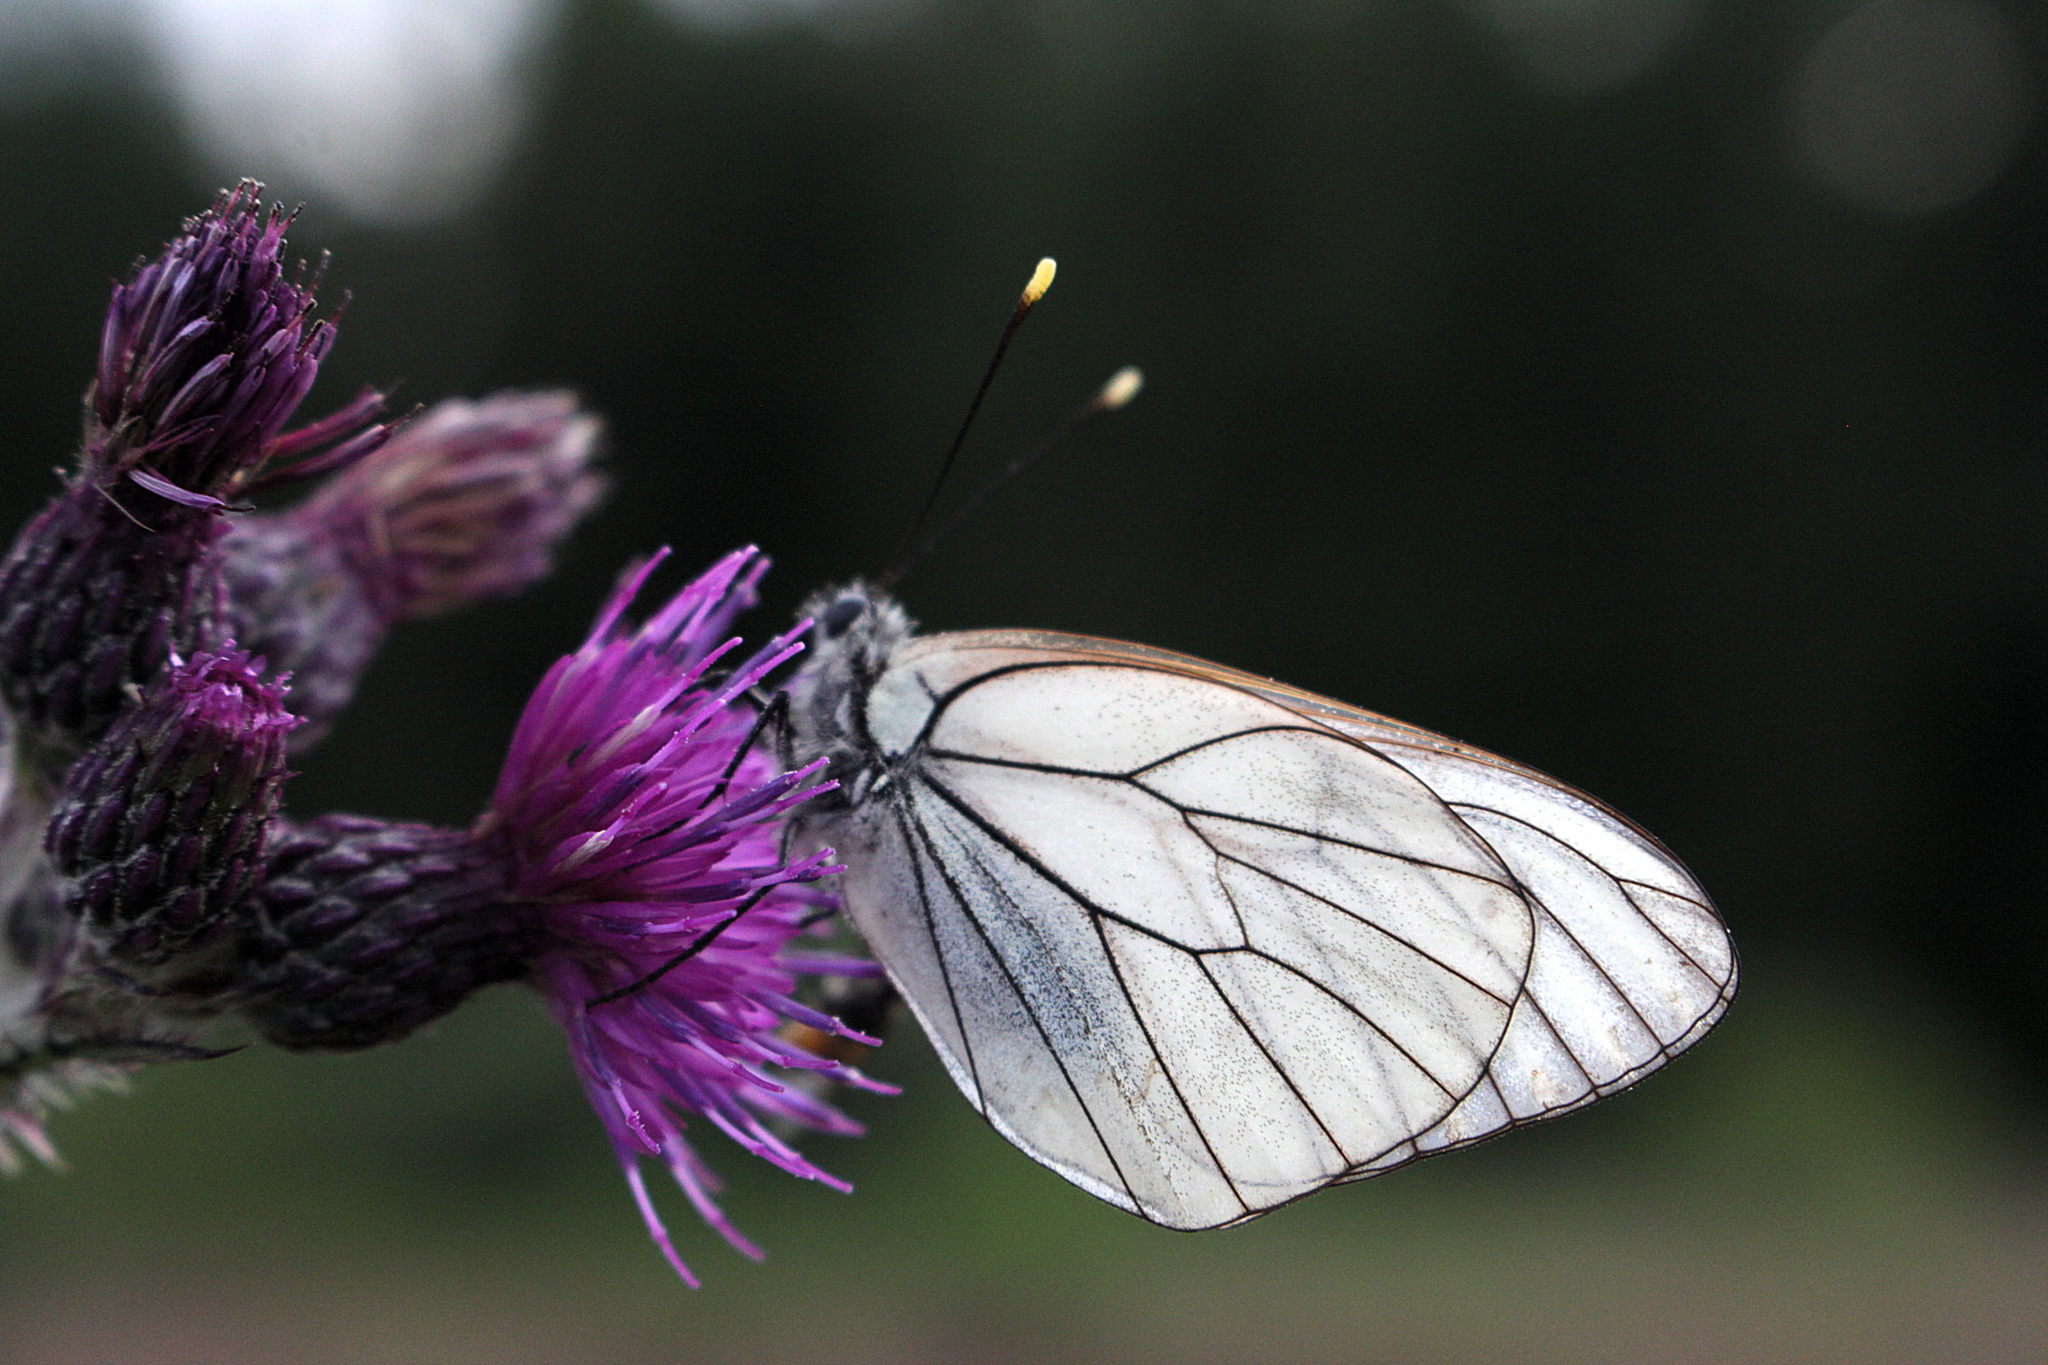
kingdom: Animalia
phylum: Arthropoda
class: Insecta
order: Lepidoptera
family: Pieridae
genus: Aporia
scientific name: Aporia crataegi
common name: Black-veined white
